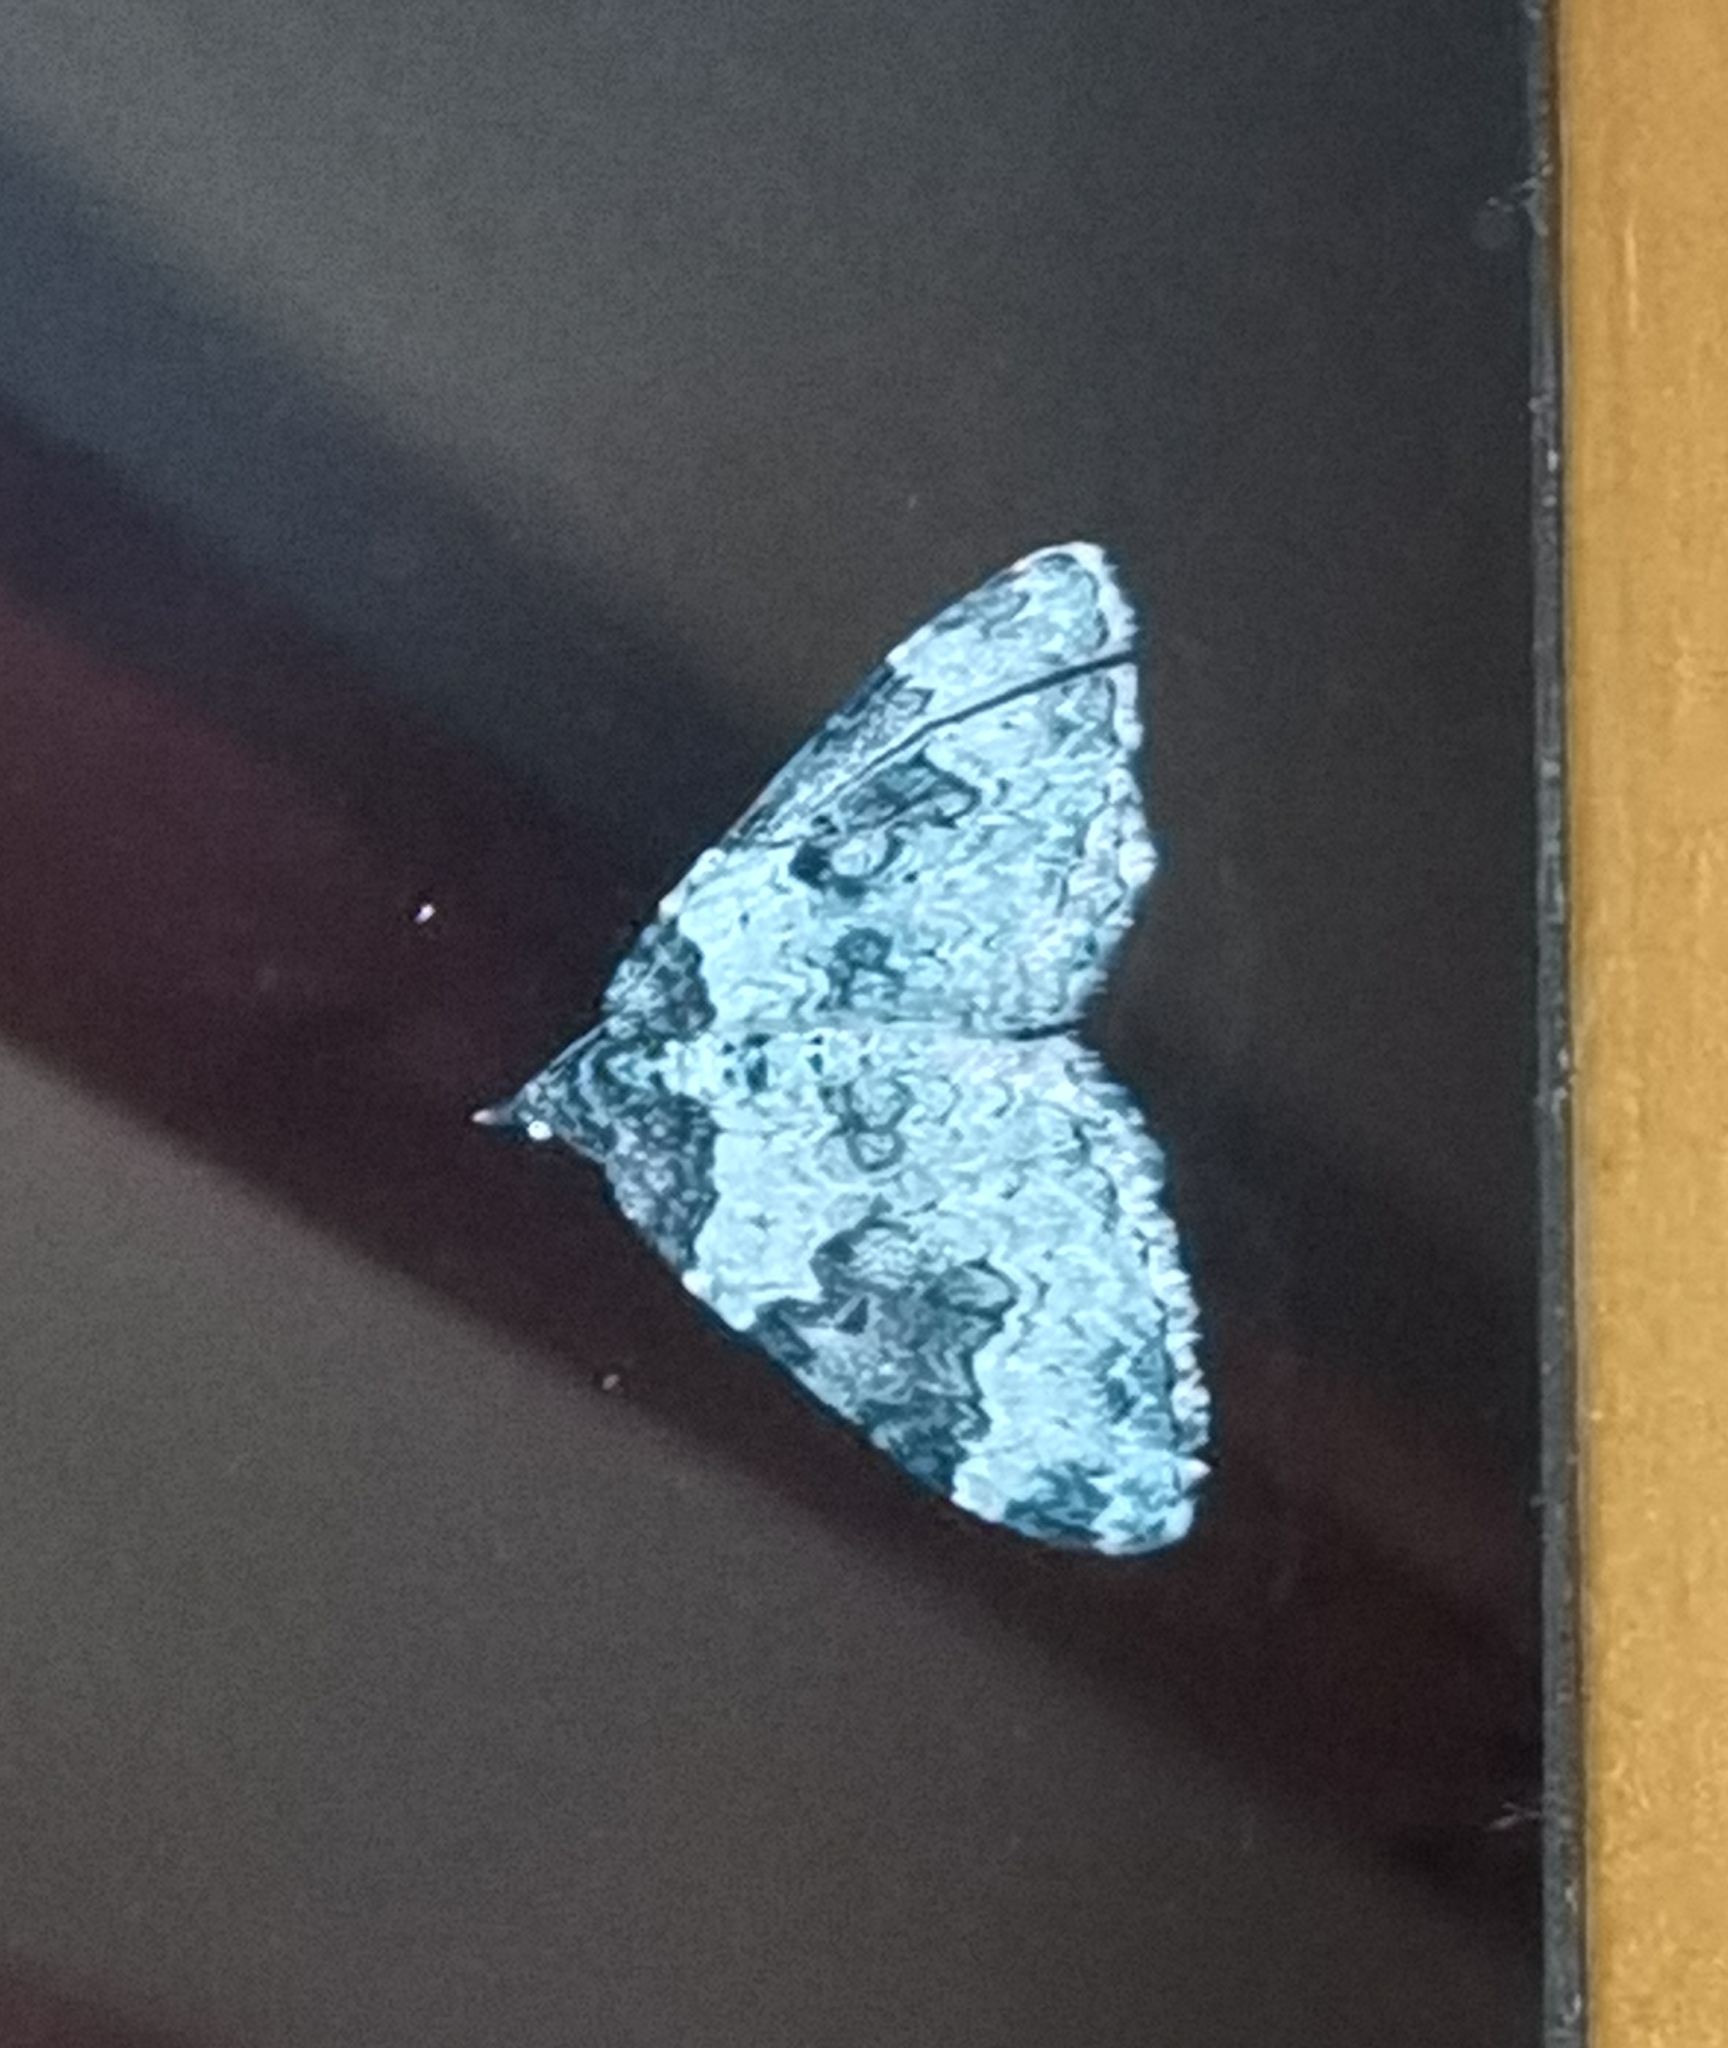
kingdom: Animalia
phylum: Arthropoda
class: Insecta
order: Lepidoptera
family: Geometridae
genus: Xanthorhoe
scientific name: Xanthorhoe fluctuata
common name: Garden carpet
